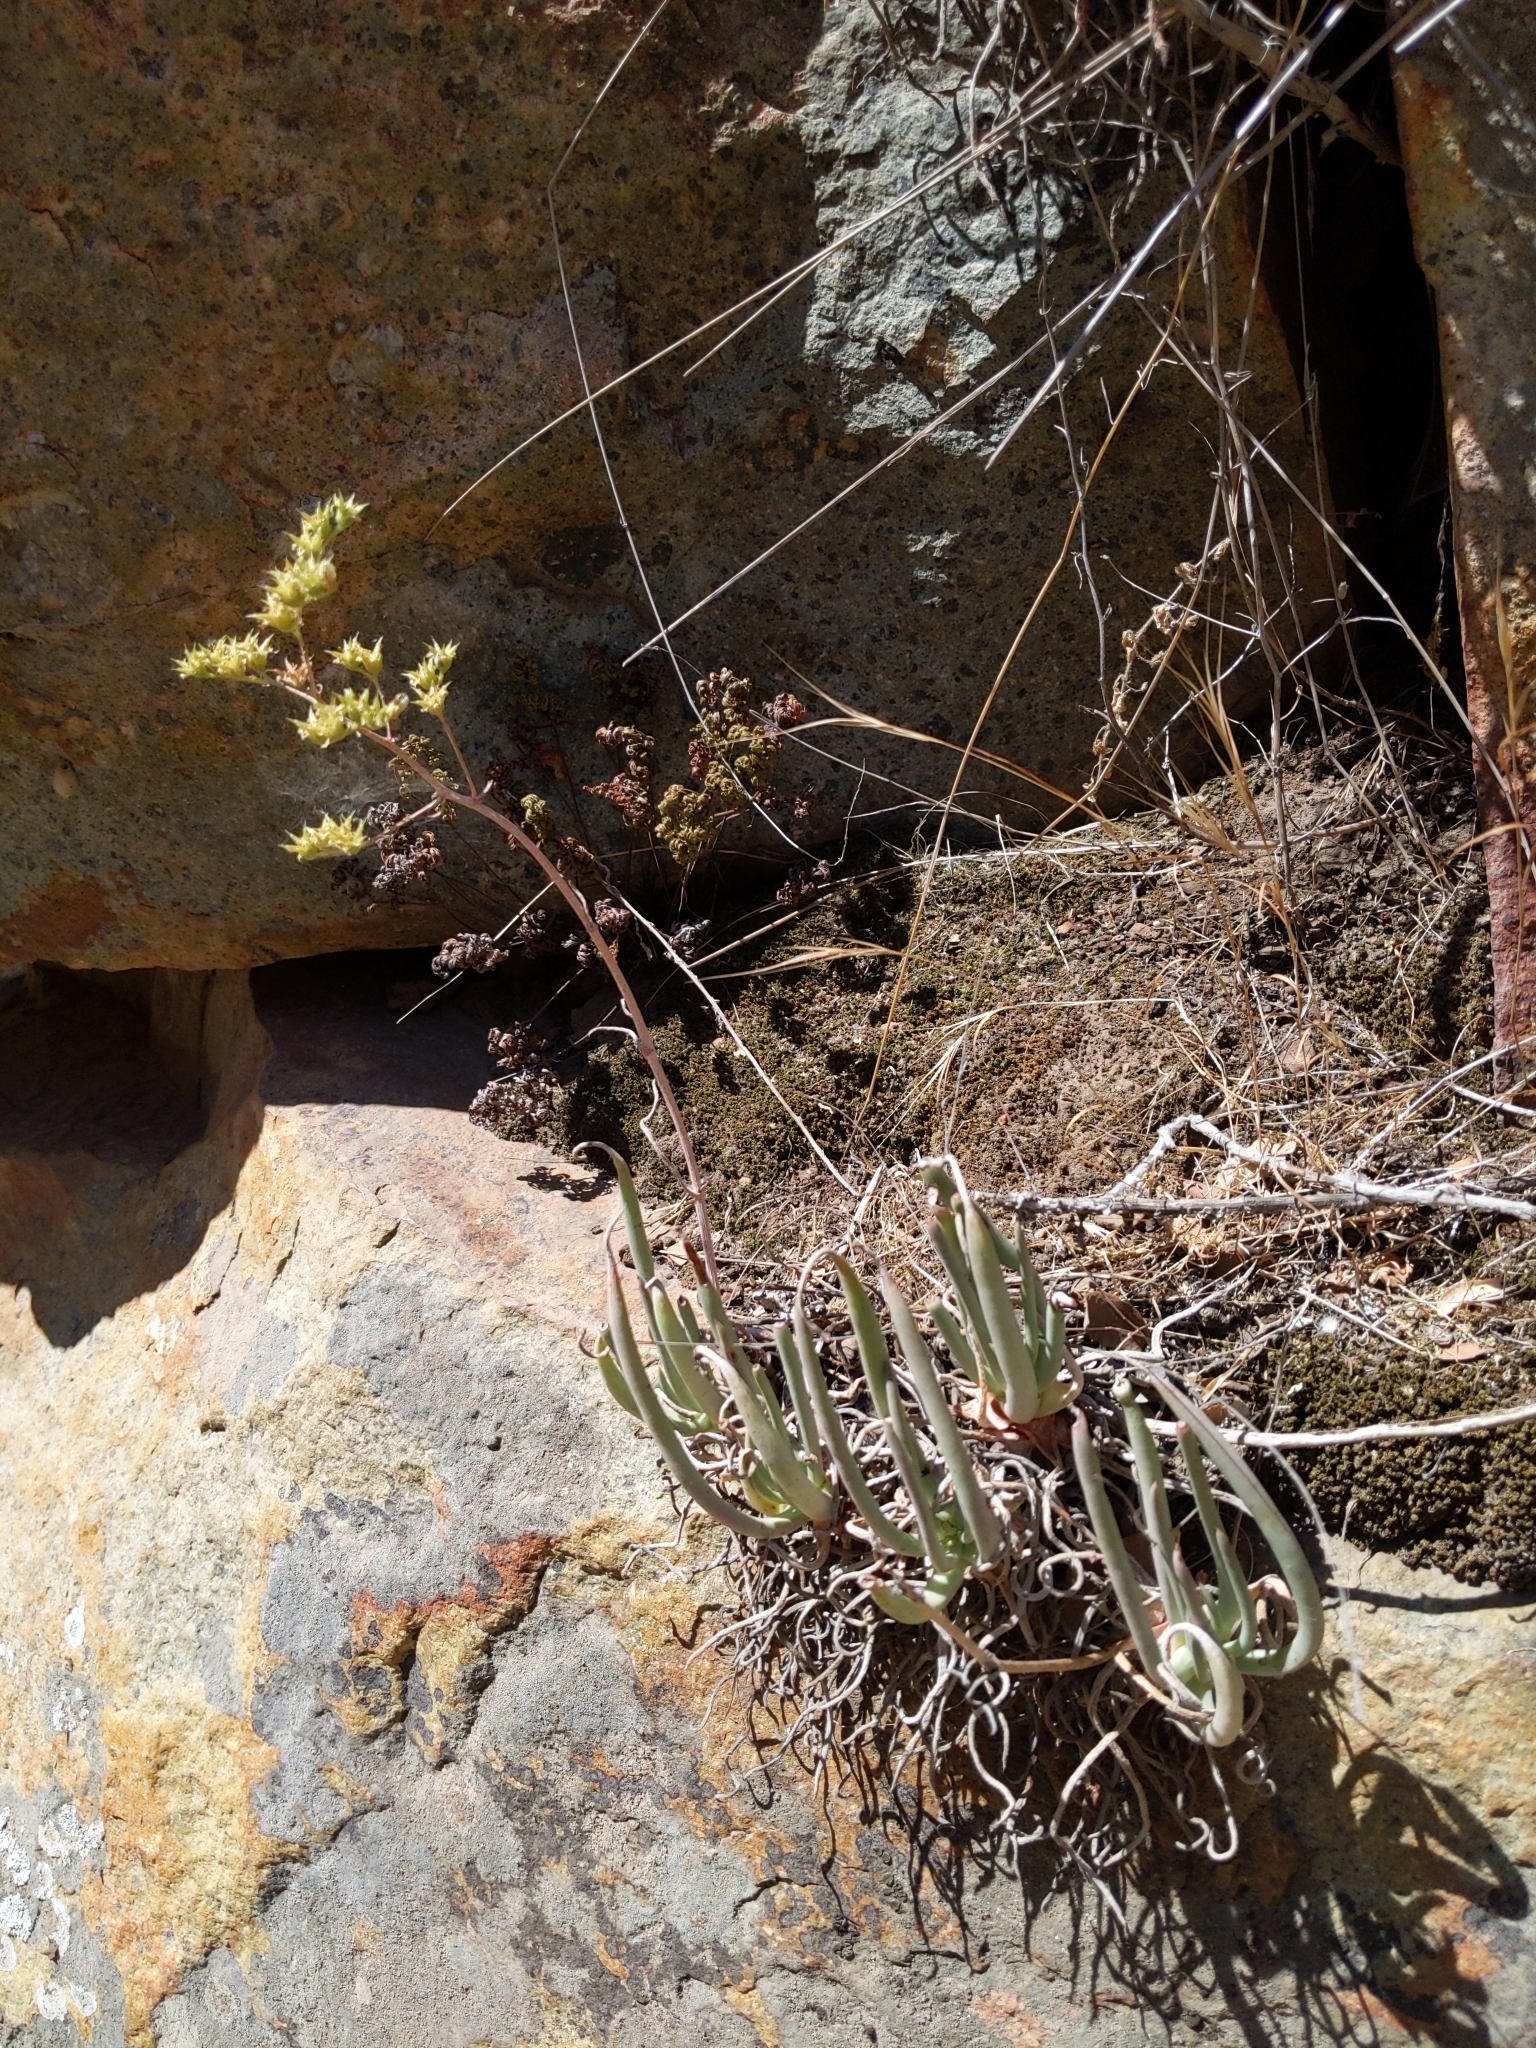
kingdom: Plantae
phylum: Tracheophyta
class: Magnoliopsida
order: Saxifragales
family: Crassulaceae
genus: Dudleya
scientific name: Dudleya edulis
